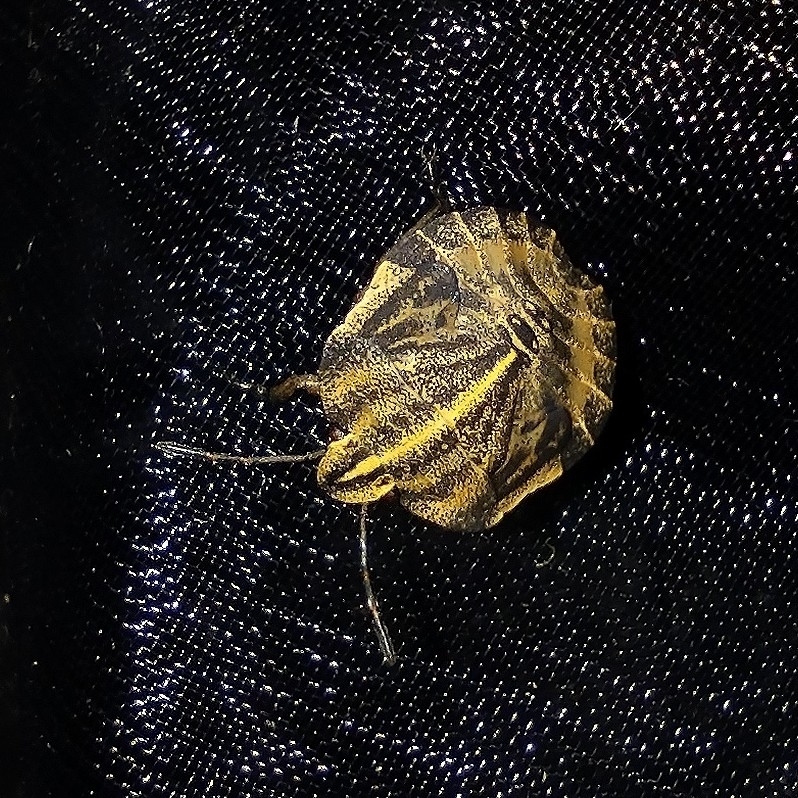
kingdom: Animalia
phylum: Arthropoda
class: Insecta
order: Hemiptera
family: Pentatomidae
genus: Graphosoma
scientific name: Graphosoma italicum
